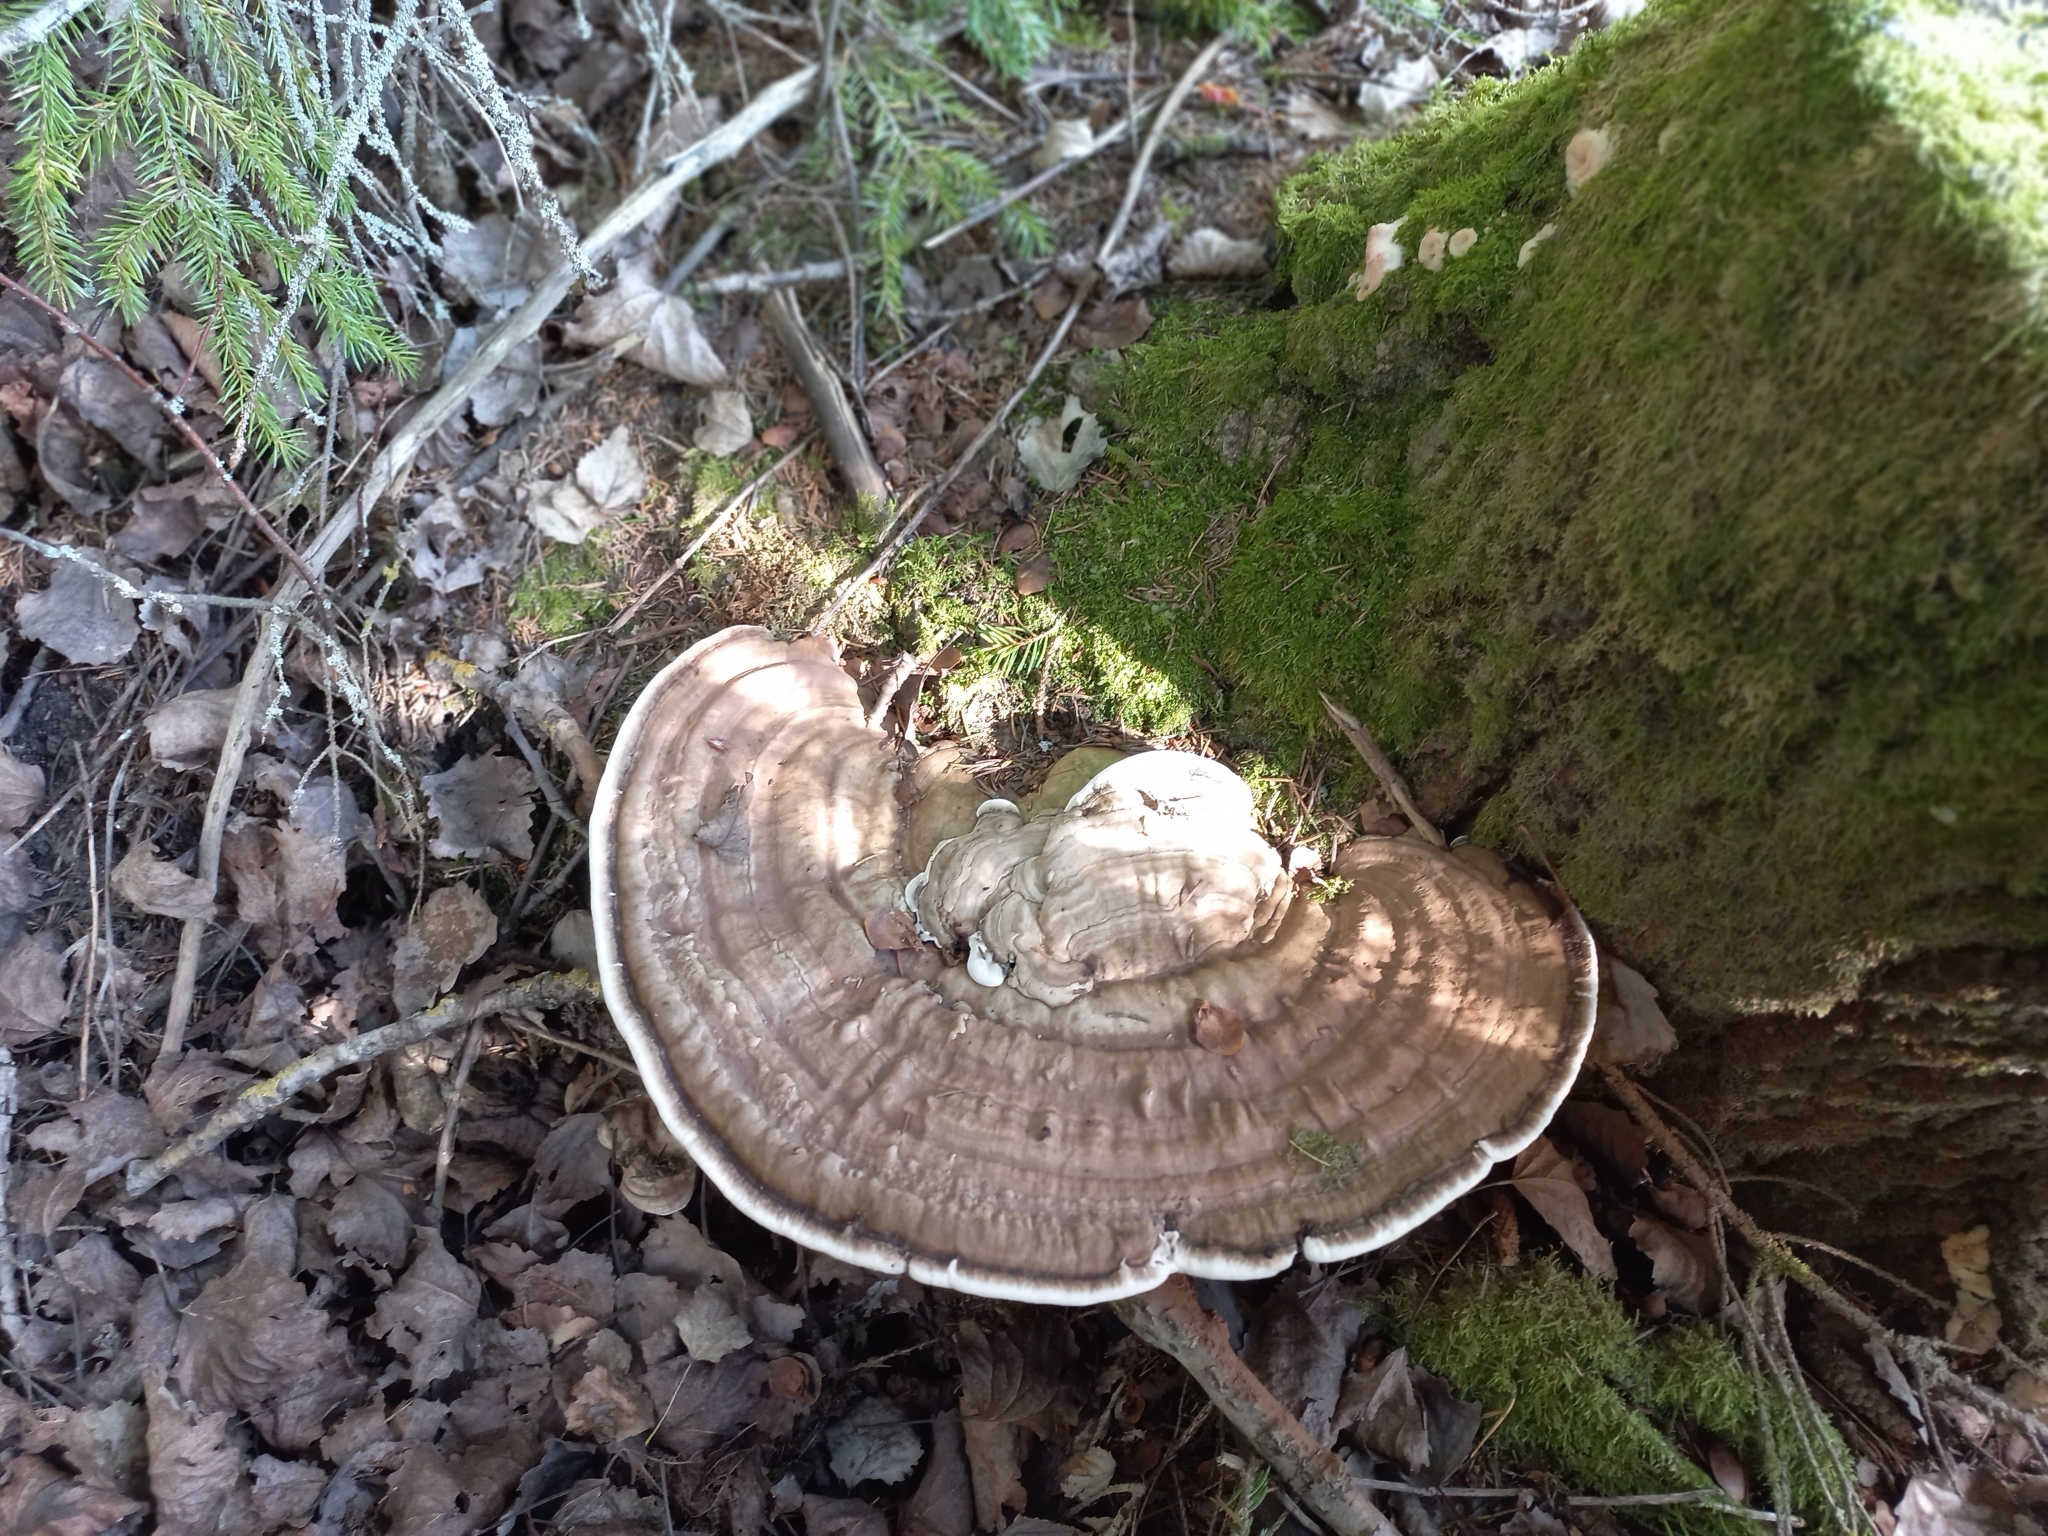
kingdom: Fungi
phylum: Basidiomycota
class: Agaricomycetes
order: Polyporales
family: Polyporaceae
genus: Ganoderma
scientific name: Ganoderma applanatum
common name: Artist's bracket
